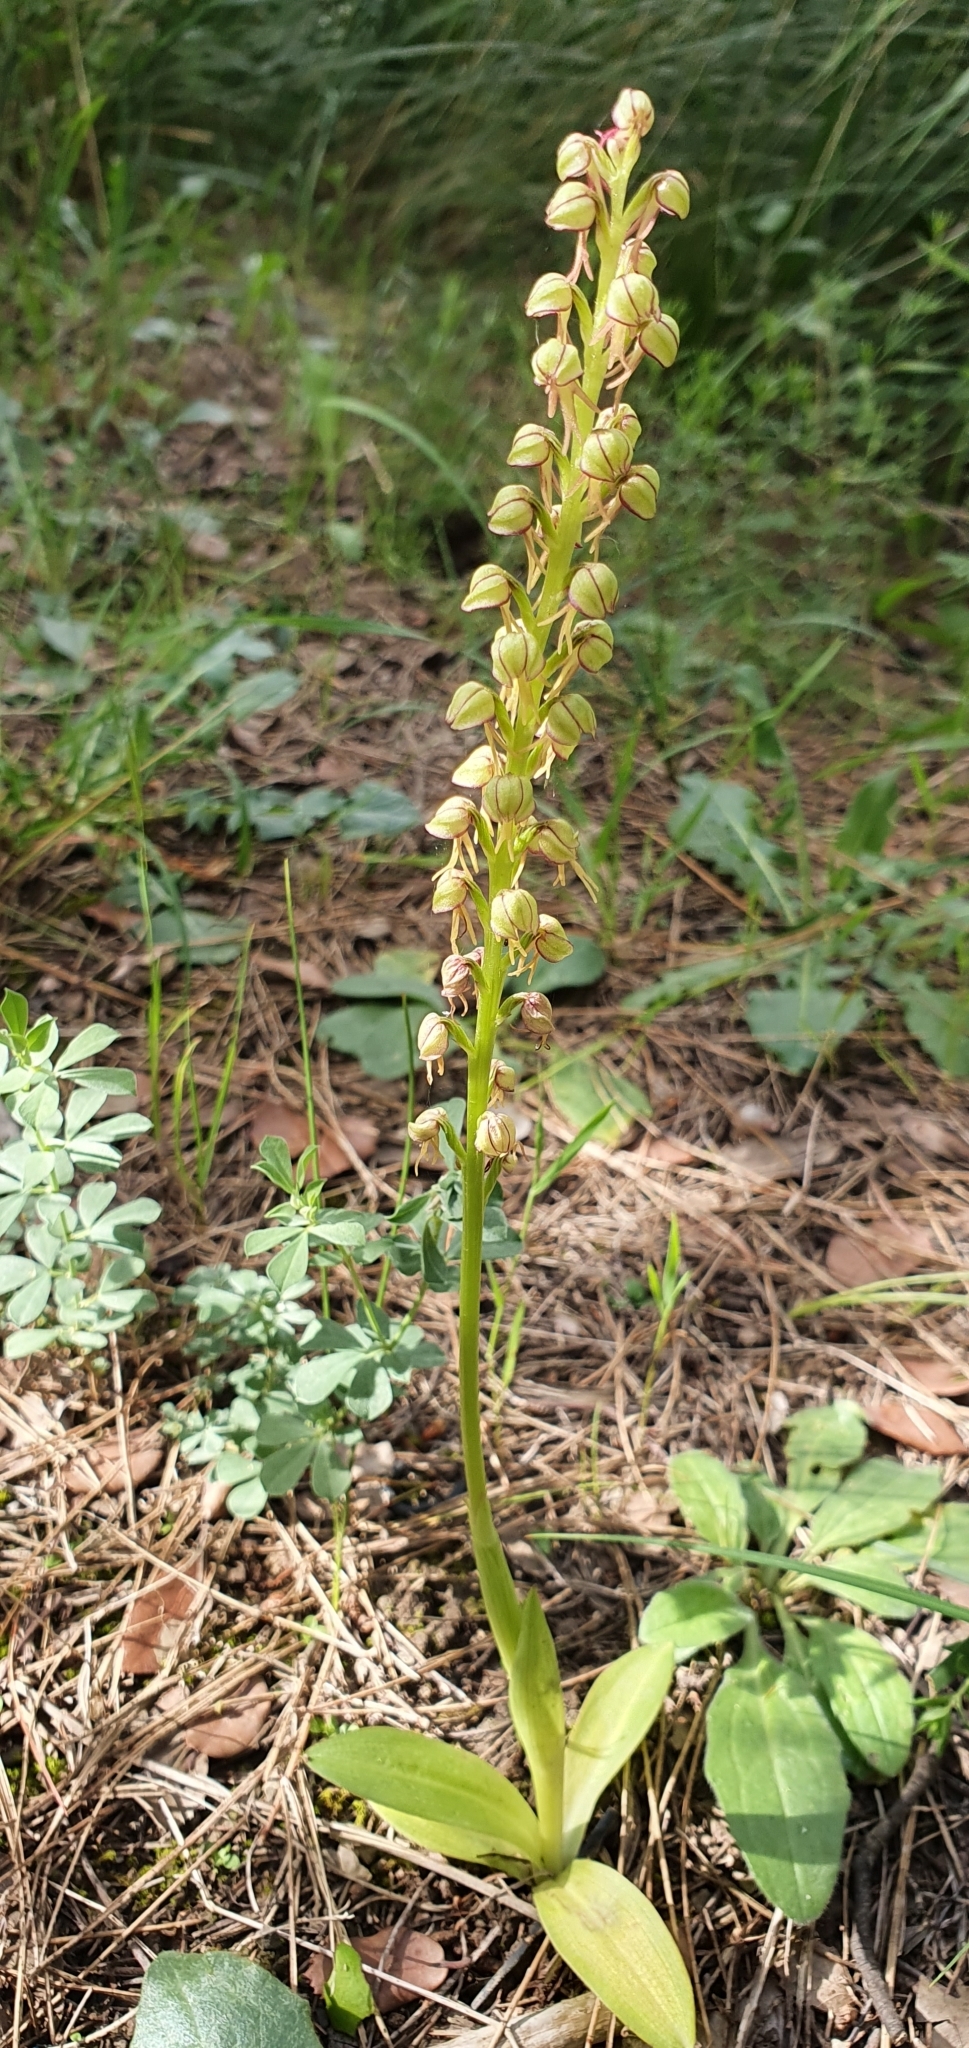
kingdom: Plantae
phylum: Tracheophyta
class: Liliopsida
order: Asparagales
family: Orchidaceae
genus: Orchis
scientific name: Orchis anthropophora
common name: Man orchid
